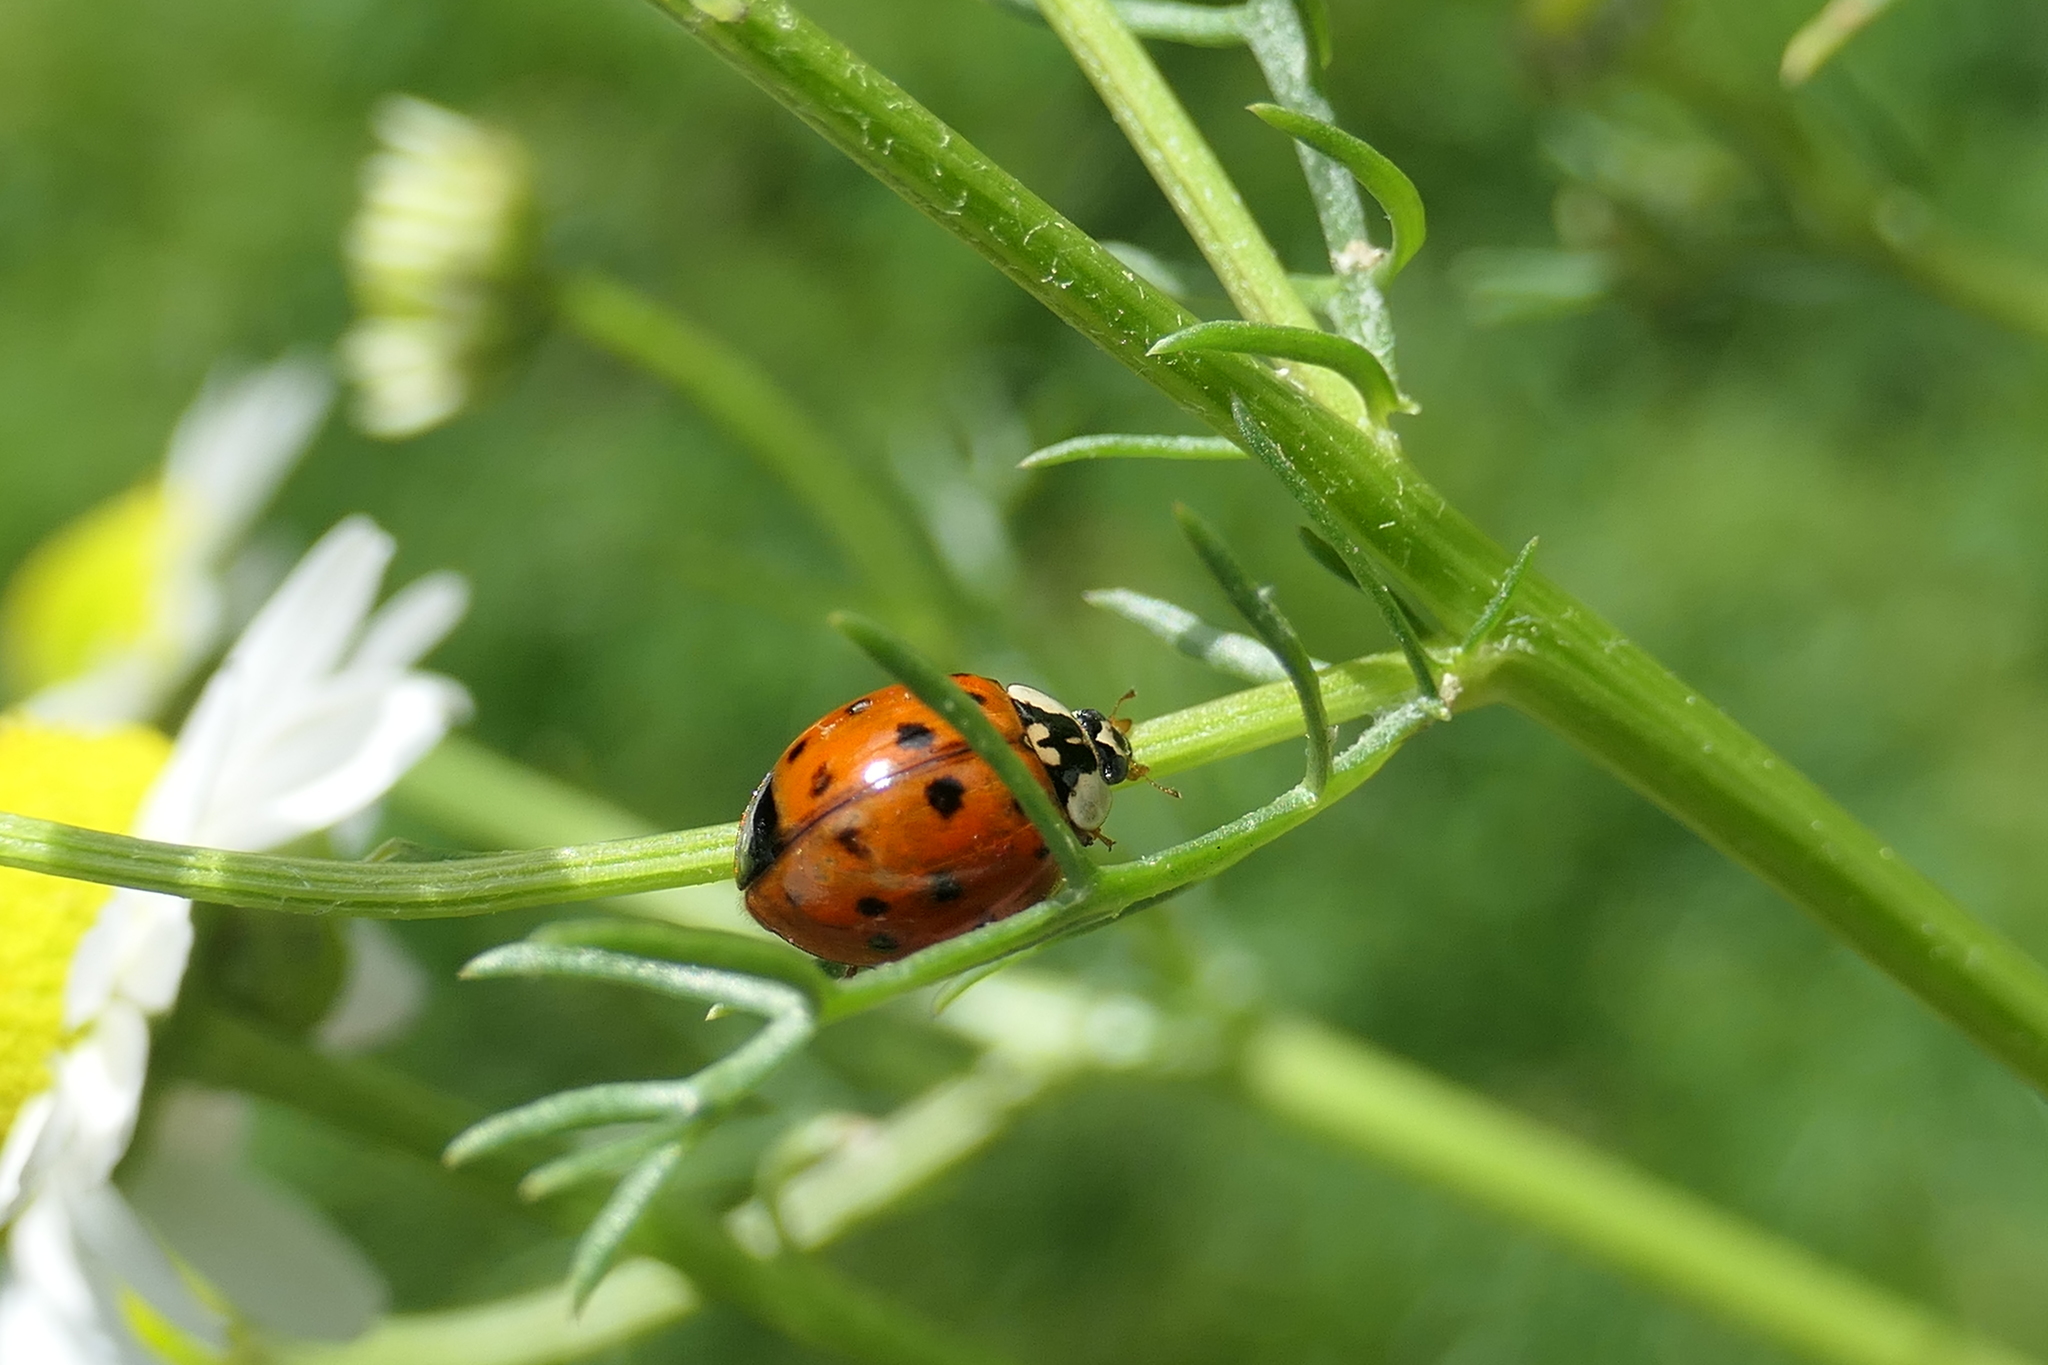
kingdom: Animalia
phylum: Arthropoda
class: Insecta
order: Coleoptera
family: Coccinellidae
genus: Harmonia
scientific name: Harmonia axyridis
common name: Harlequin ladybird
